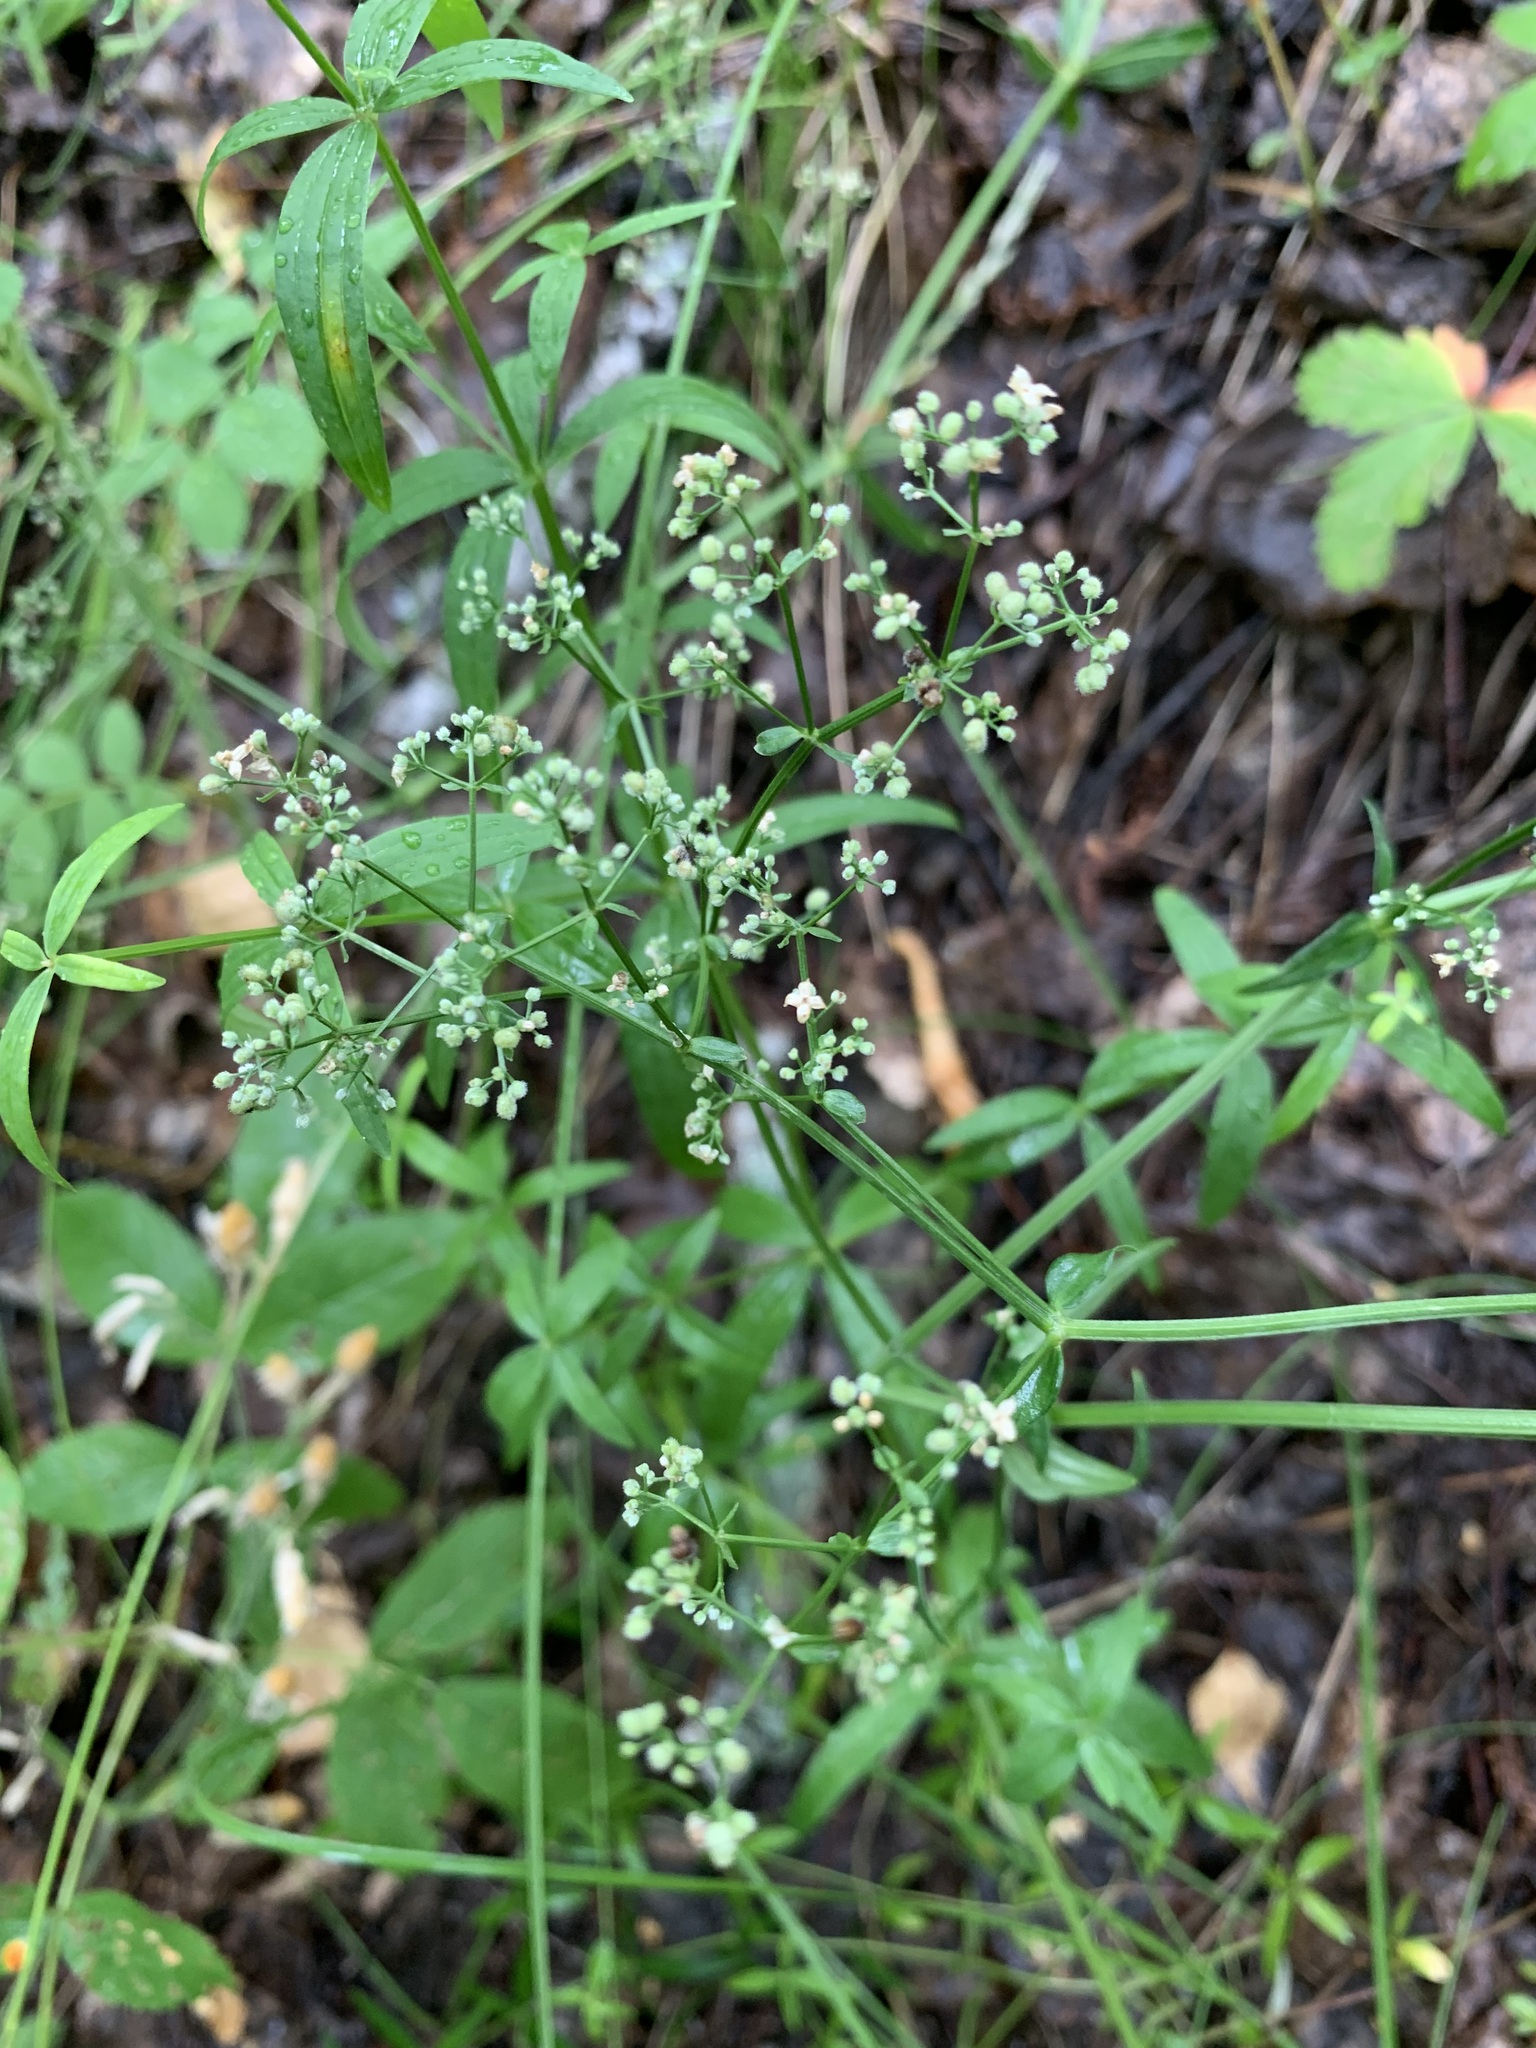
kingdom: Plantae
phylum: Tracheophyta
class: Magnoliopsida
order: Gentianales
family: Rubiaceae
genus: Galium
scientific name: Galium boreale
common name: Northern bedstraw
